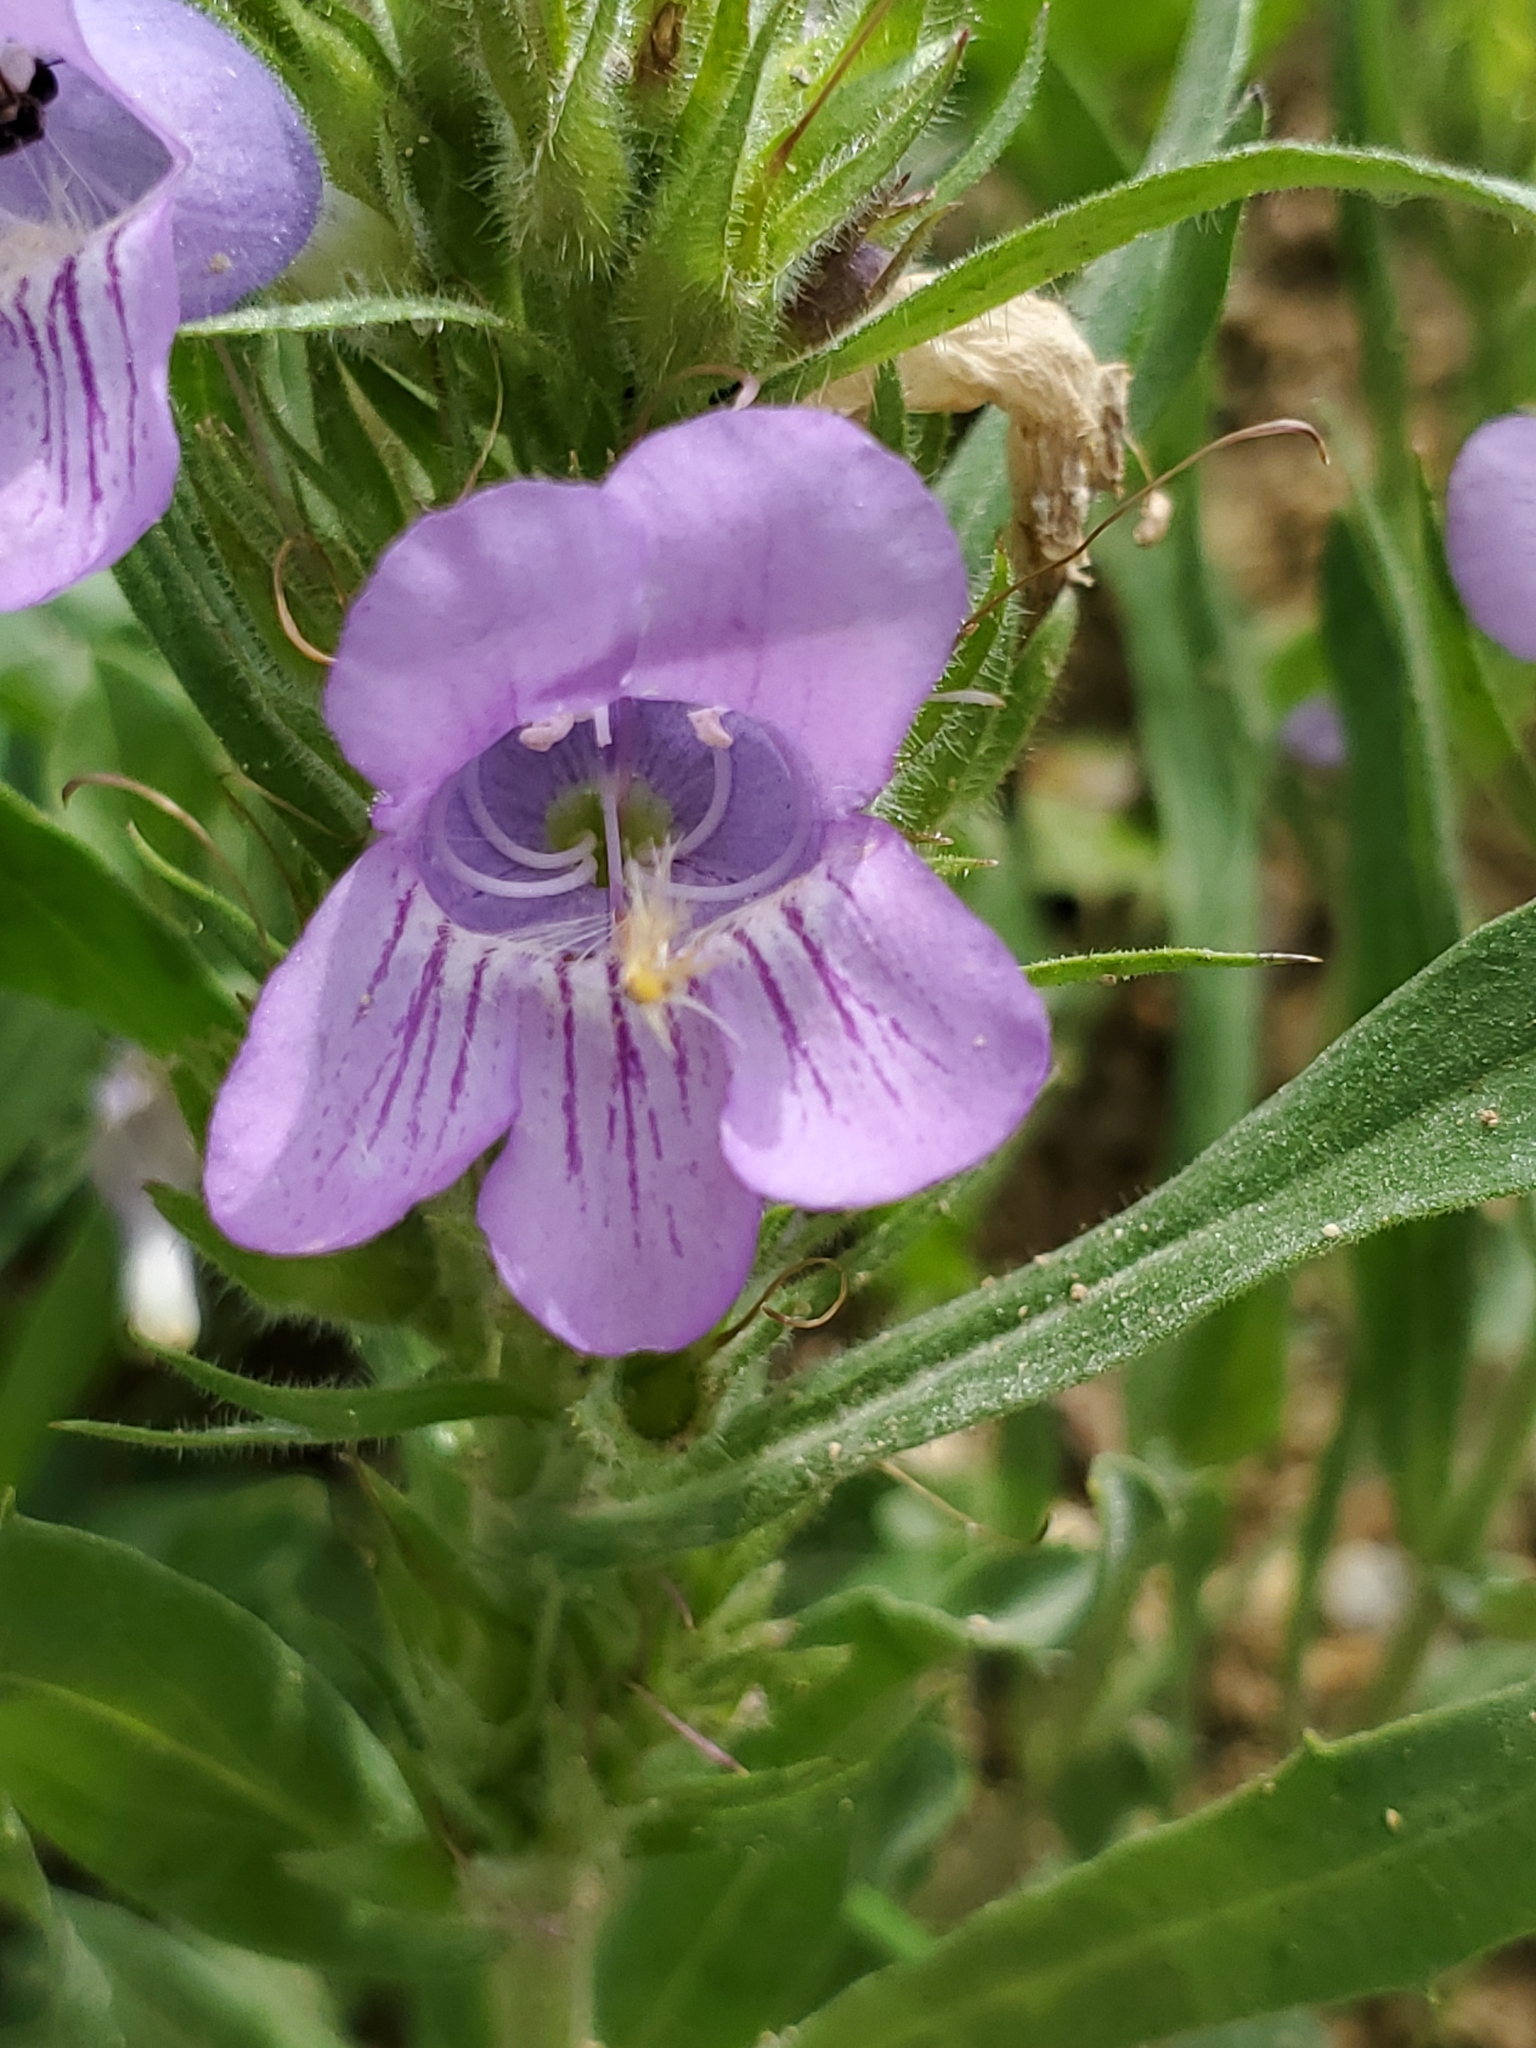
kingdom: Plantae
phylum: Tracheophyta
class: Magnoliopsida
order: Lamiales
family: Plantaginaceae
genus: Penstemon
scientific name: Penstemon eriantherus
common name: Crested beardtongue
